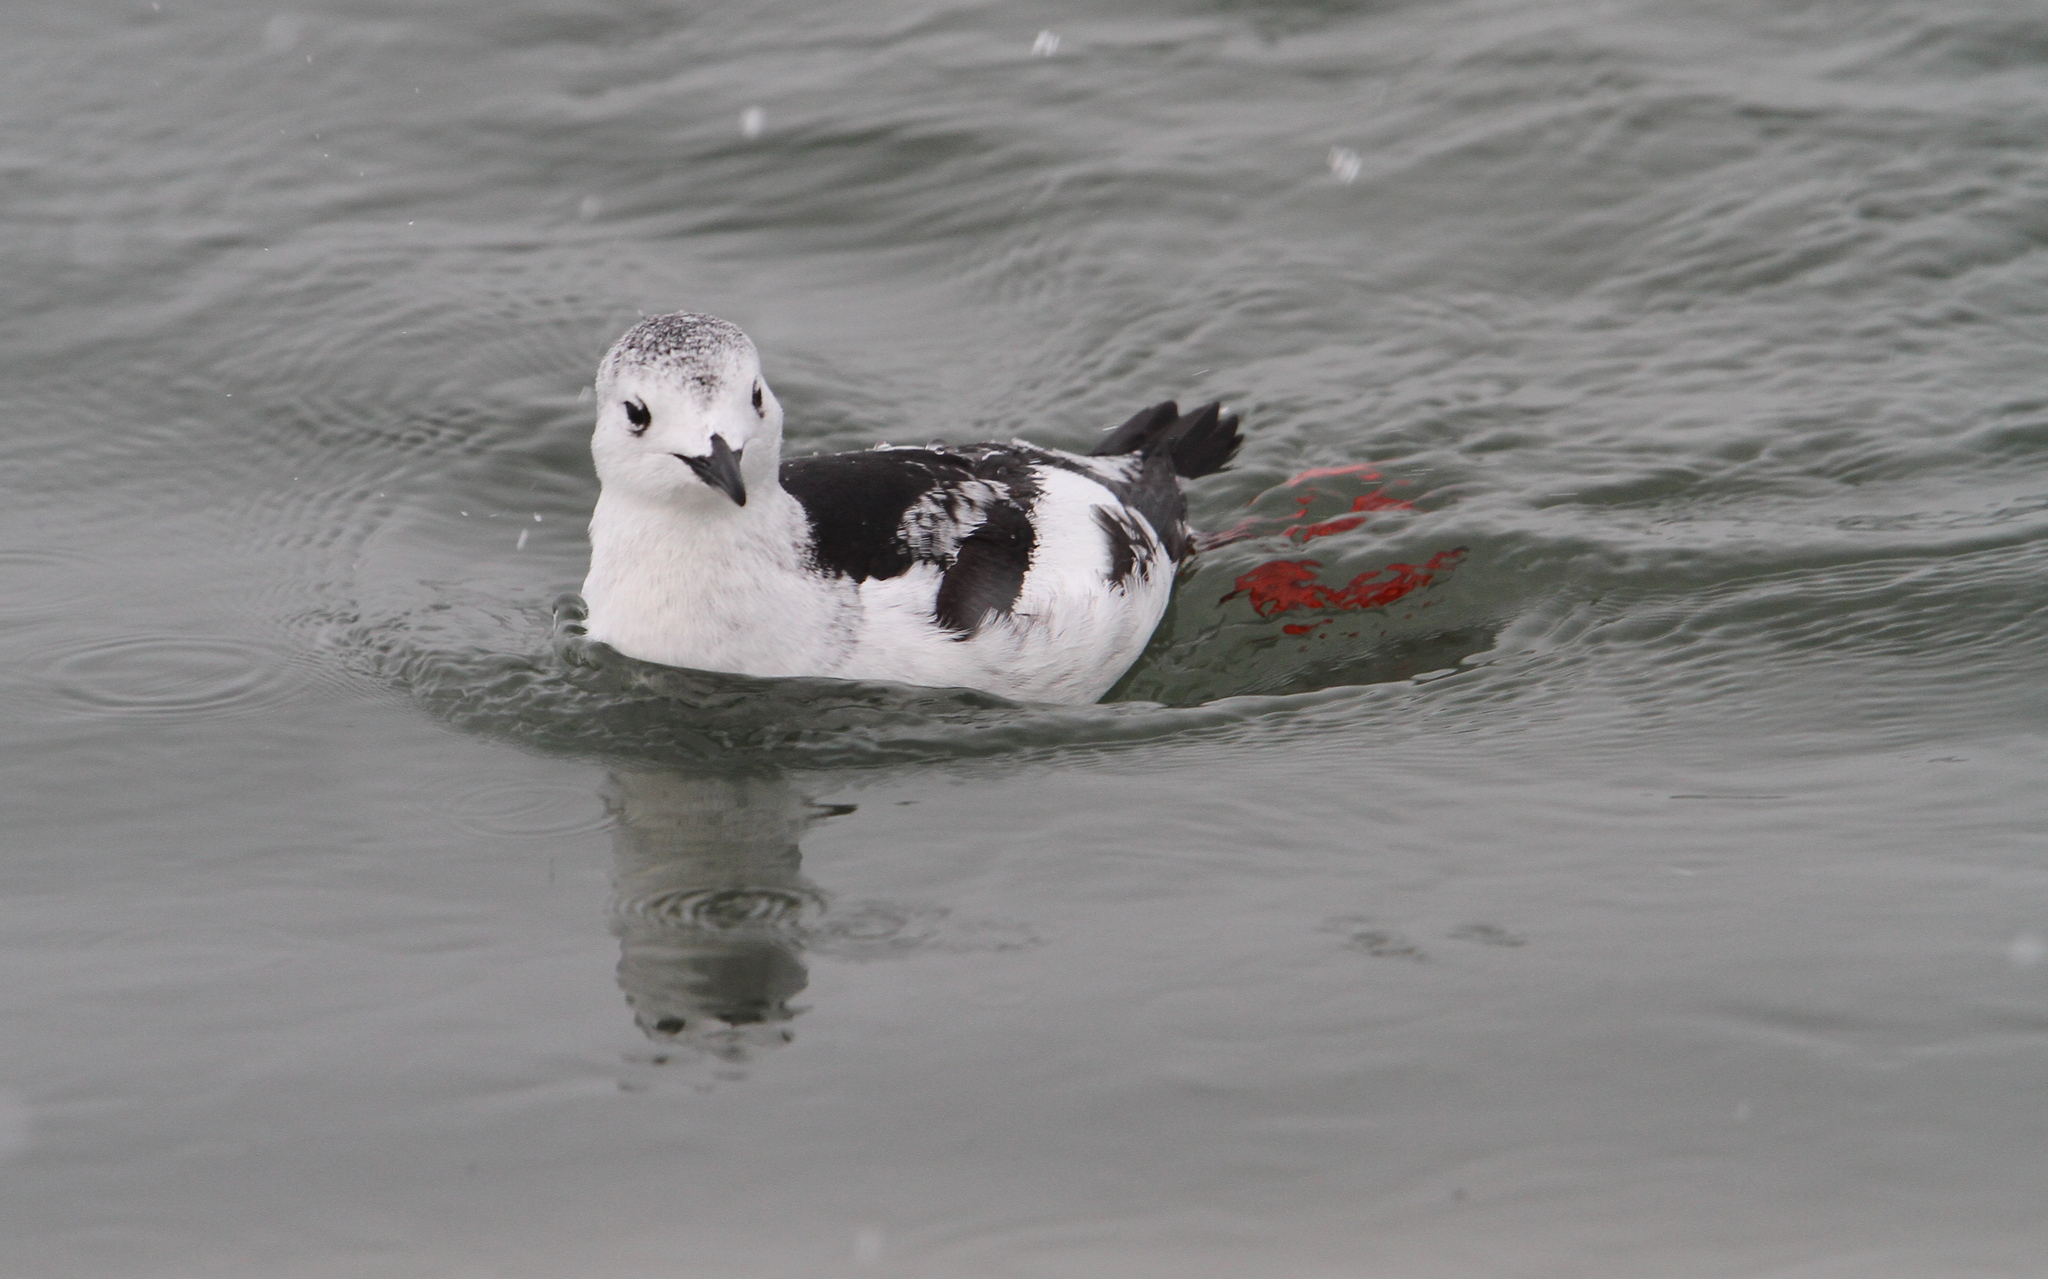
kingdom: Animalia
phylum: Chordata
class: Aves
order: Charadriiformes
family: Alcidae
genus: Cepphus
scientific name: Cepphus grylle
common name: Black guillemot
